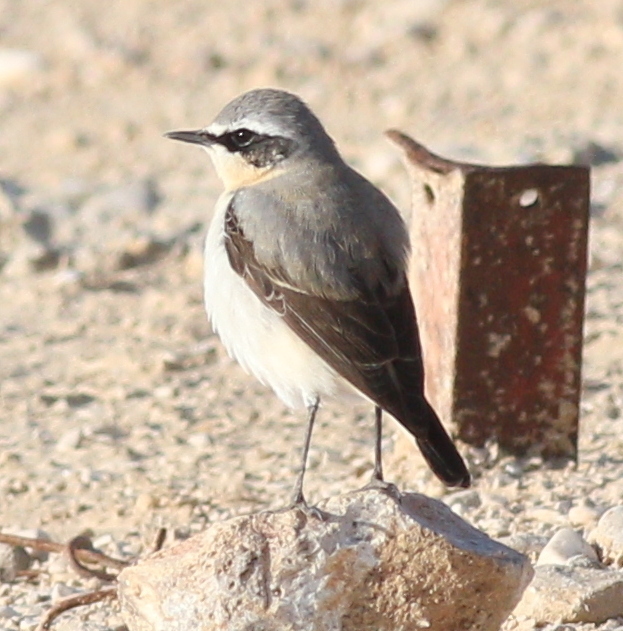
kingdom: Animalia
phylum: Chordata
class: Aves
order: Passeriformes
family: Muscicapidae
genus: Oenanthe
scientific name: Oenanthe oenanthe
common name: Northern wheatear
